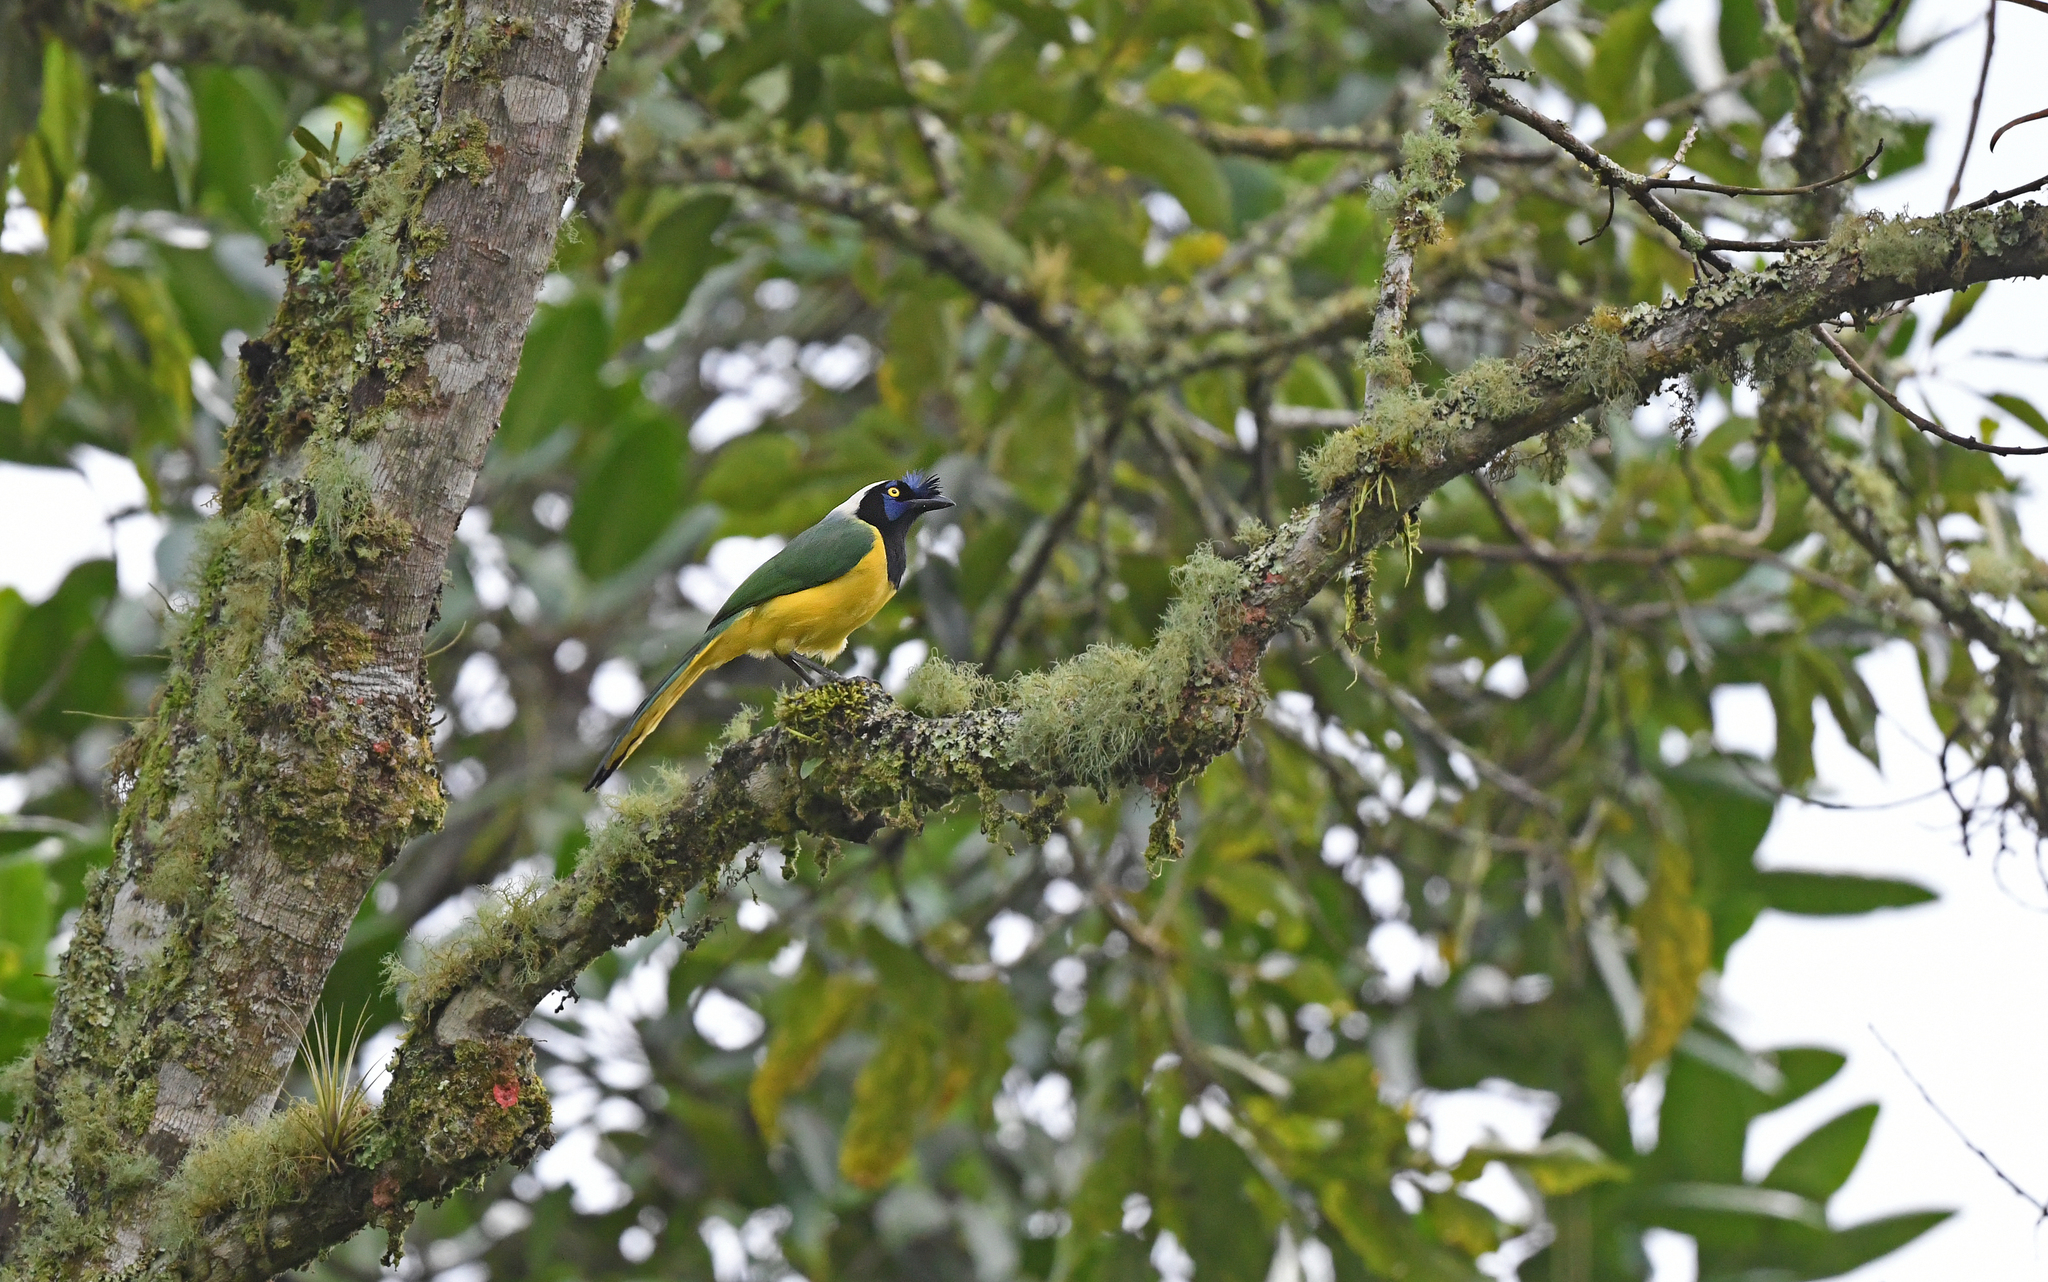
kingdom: Animalia
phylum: Chordata
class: Aves
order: Passeriformes
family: Corvidae
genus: Cyanocorax
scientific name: Cyanocorax yncas
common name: Green jay
